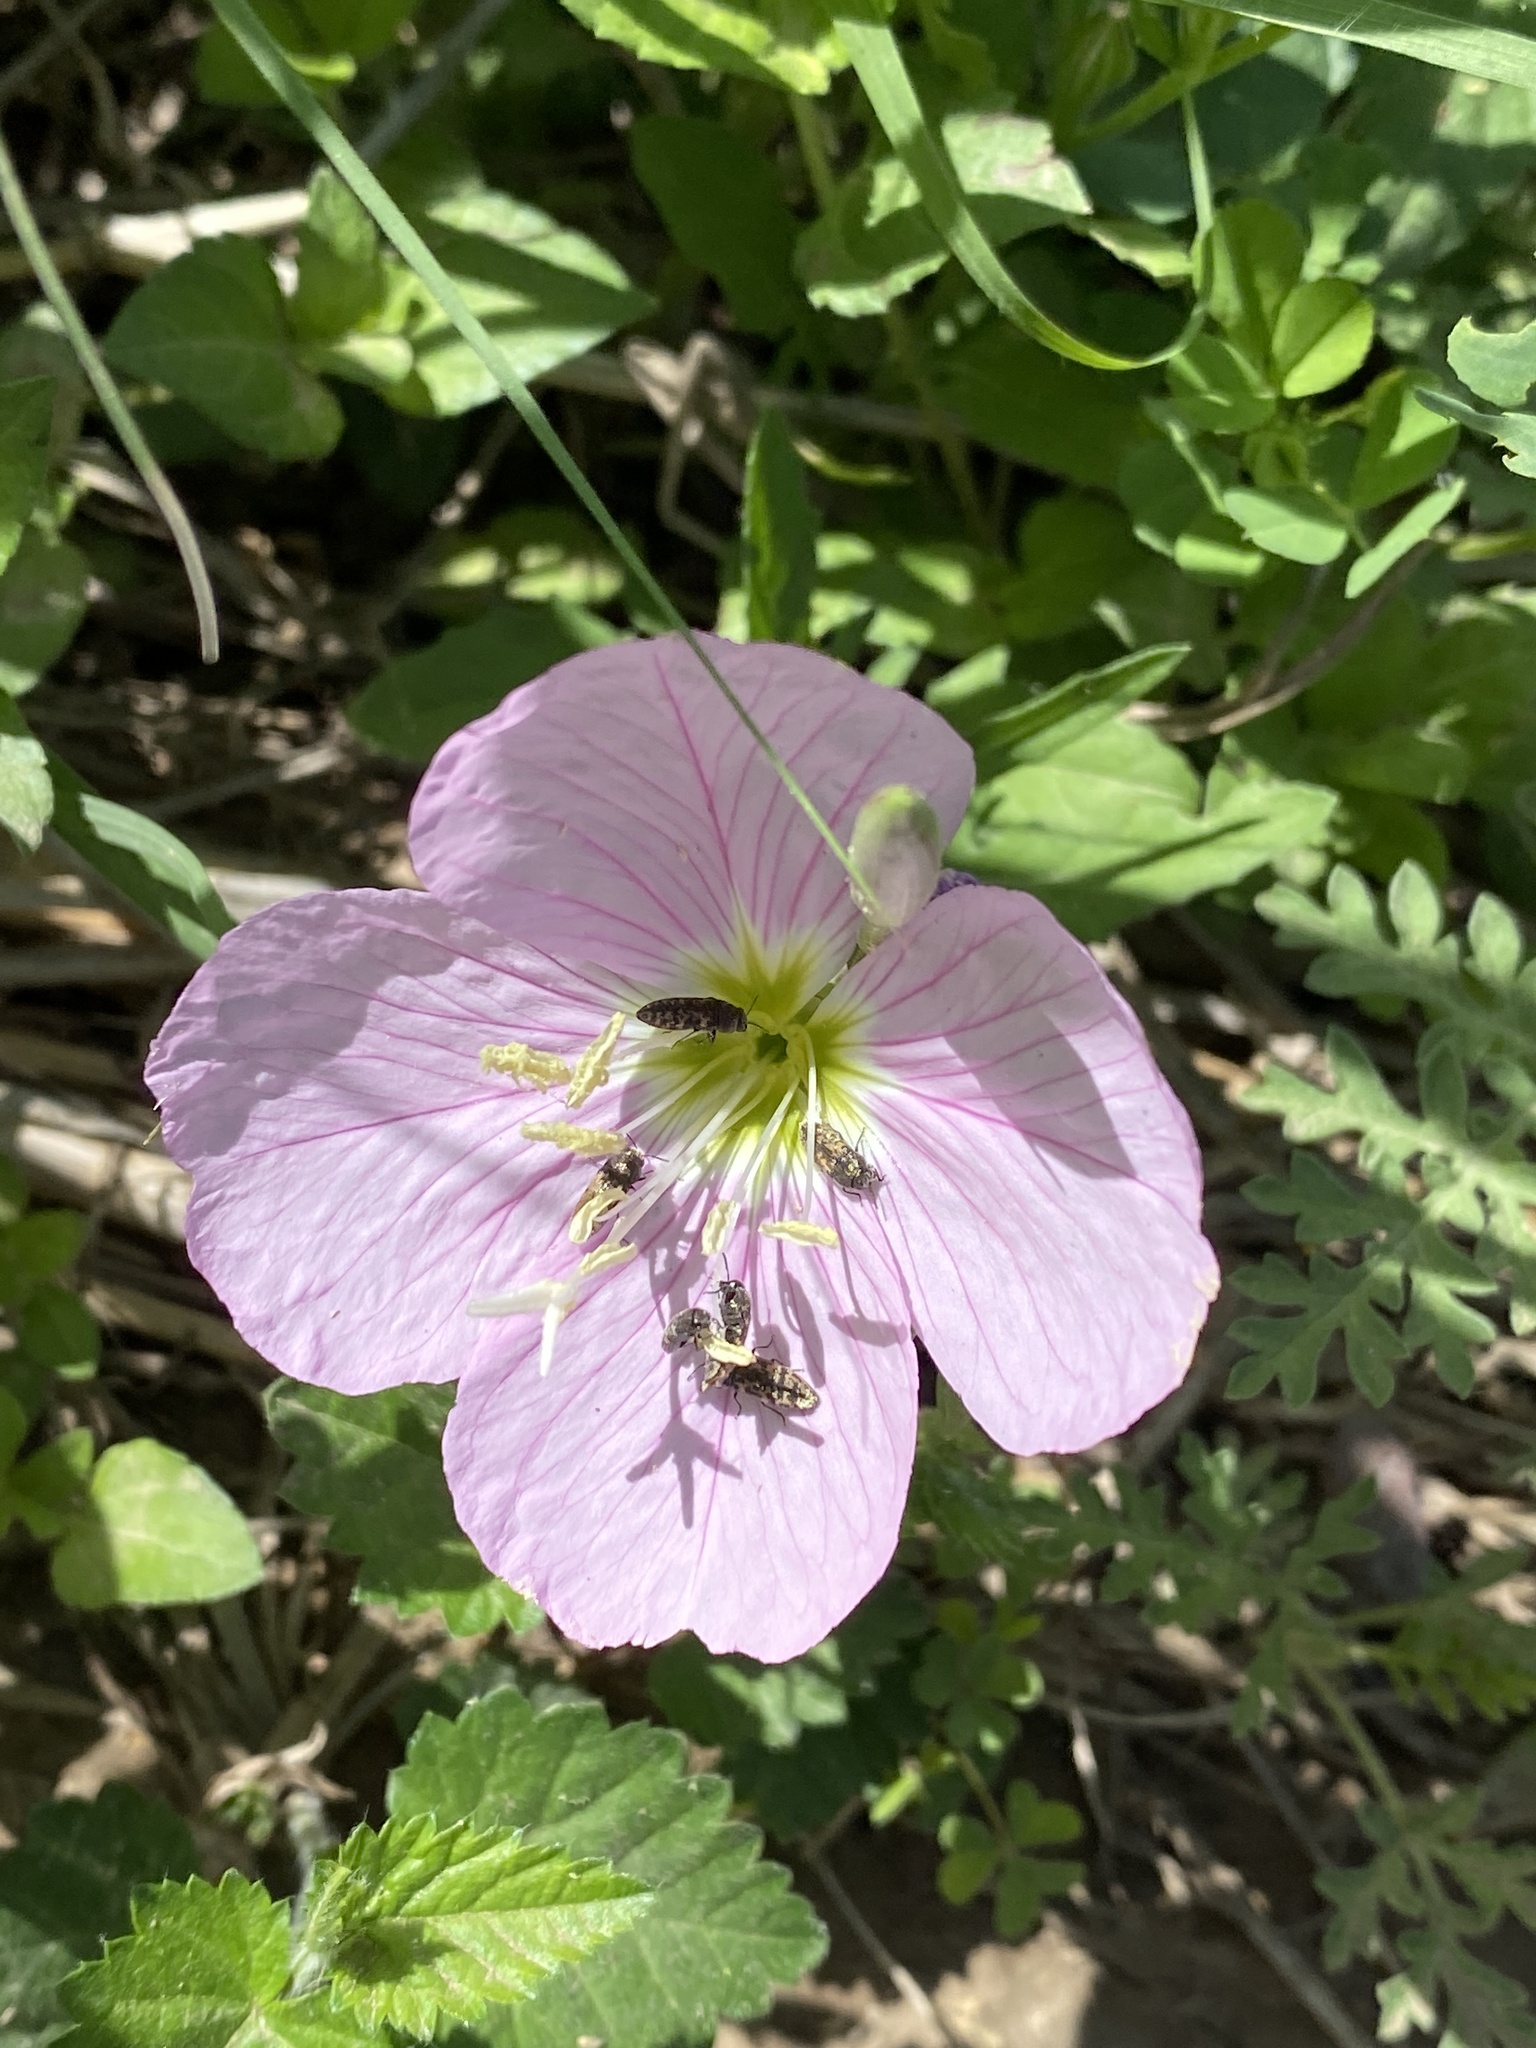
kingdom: Plantae
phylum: Tracheophyta
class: Magnoliopsida
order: Myrtales
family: Onagraceae
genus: Oenothera
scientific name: Oenothera speciosa
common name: White evening-primrose
